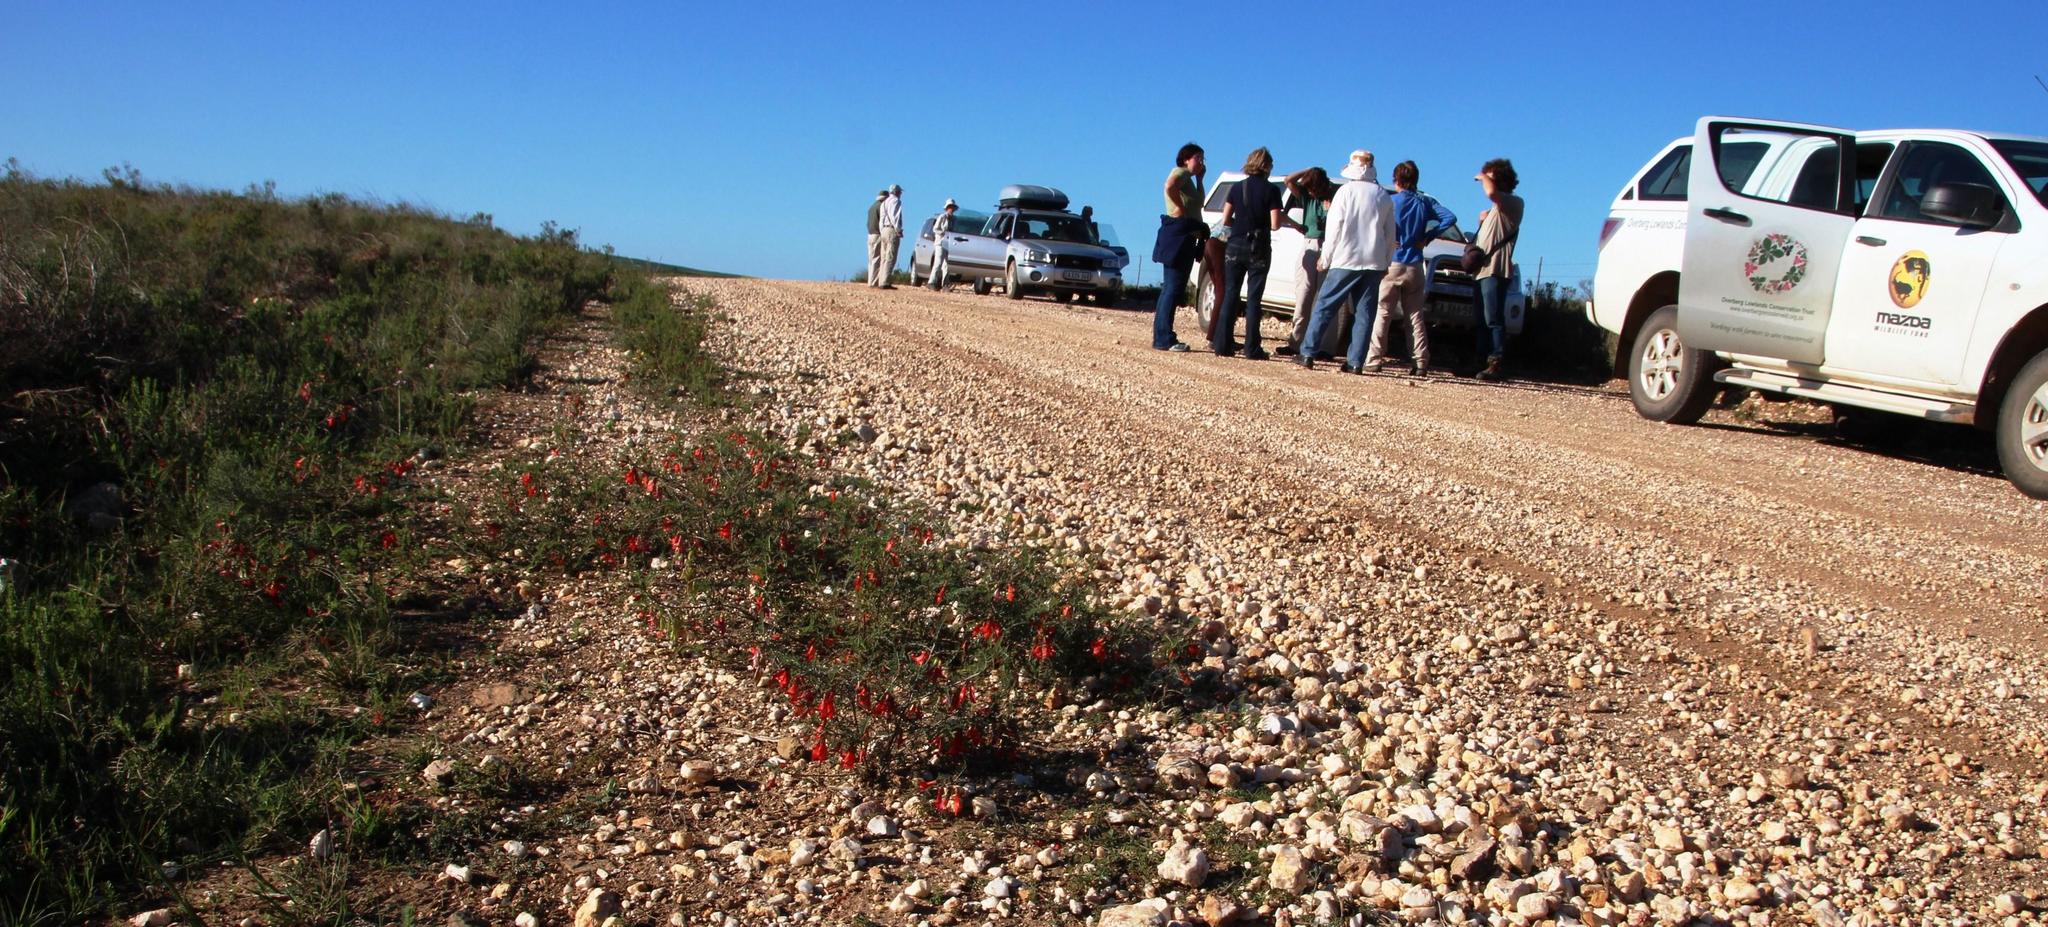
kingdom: Plantae
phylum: Tracheophyta
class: Magnoliopsida
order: Fabales
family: Fabaceae
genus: Lessertia
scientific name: Lessertia frutescens
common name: Balloon-pea
